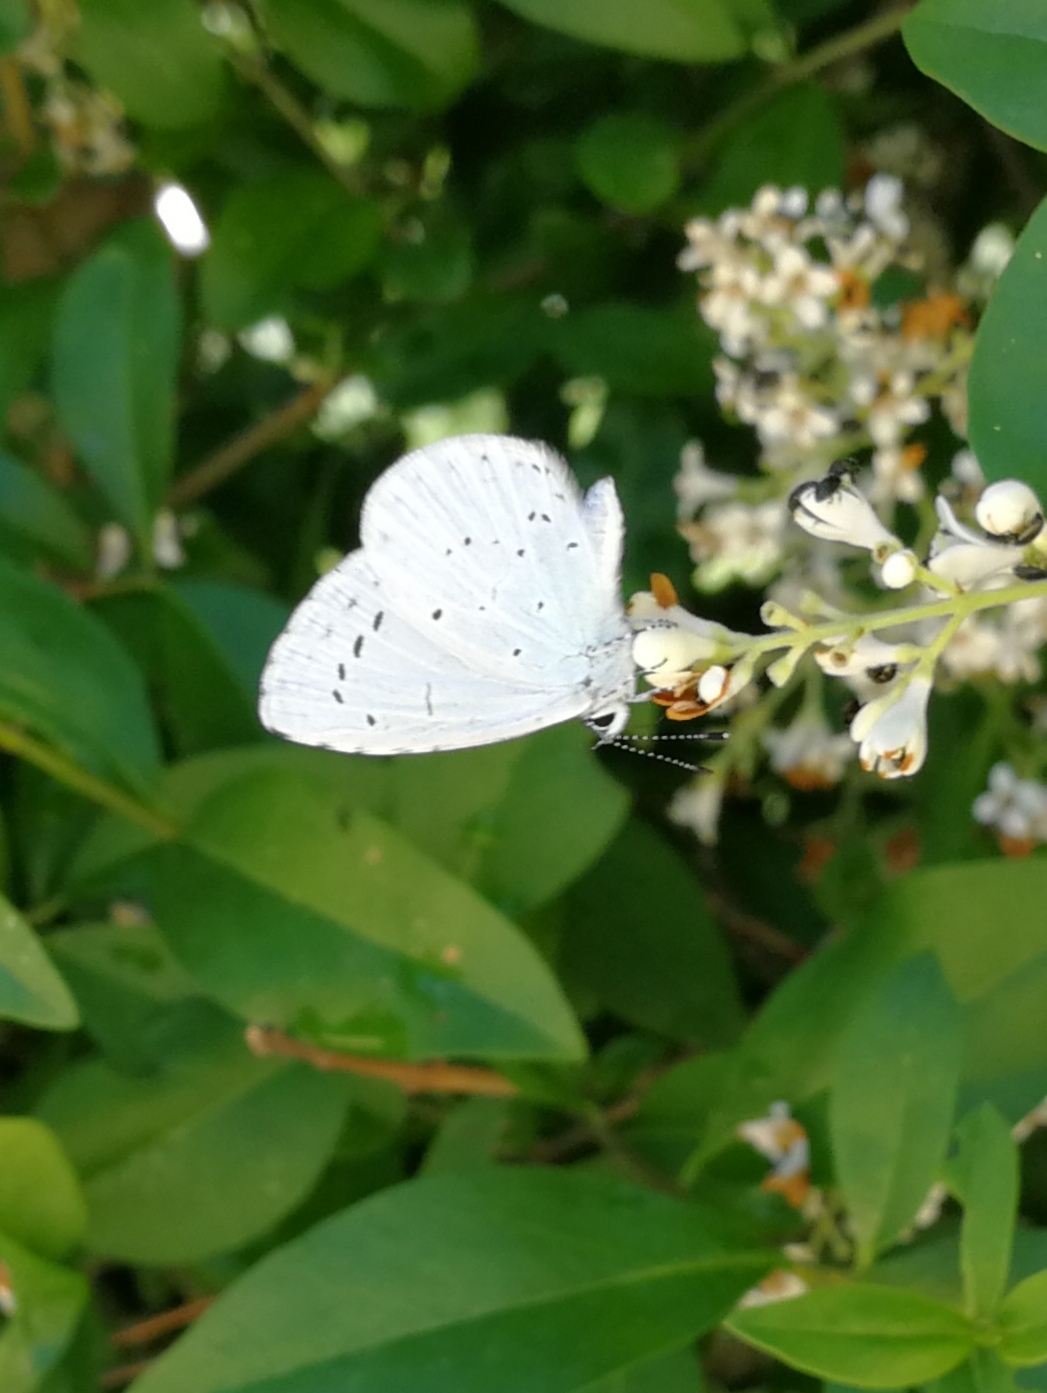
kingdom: Animalia
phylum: Arthropoda
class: Insecta
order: Lepidoptera
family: Lycaenidae
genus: Celastrina
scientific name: Celastrina argiolus
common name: Holly blue
